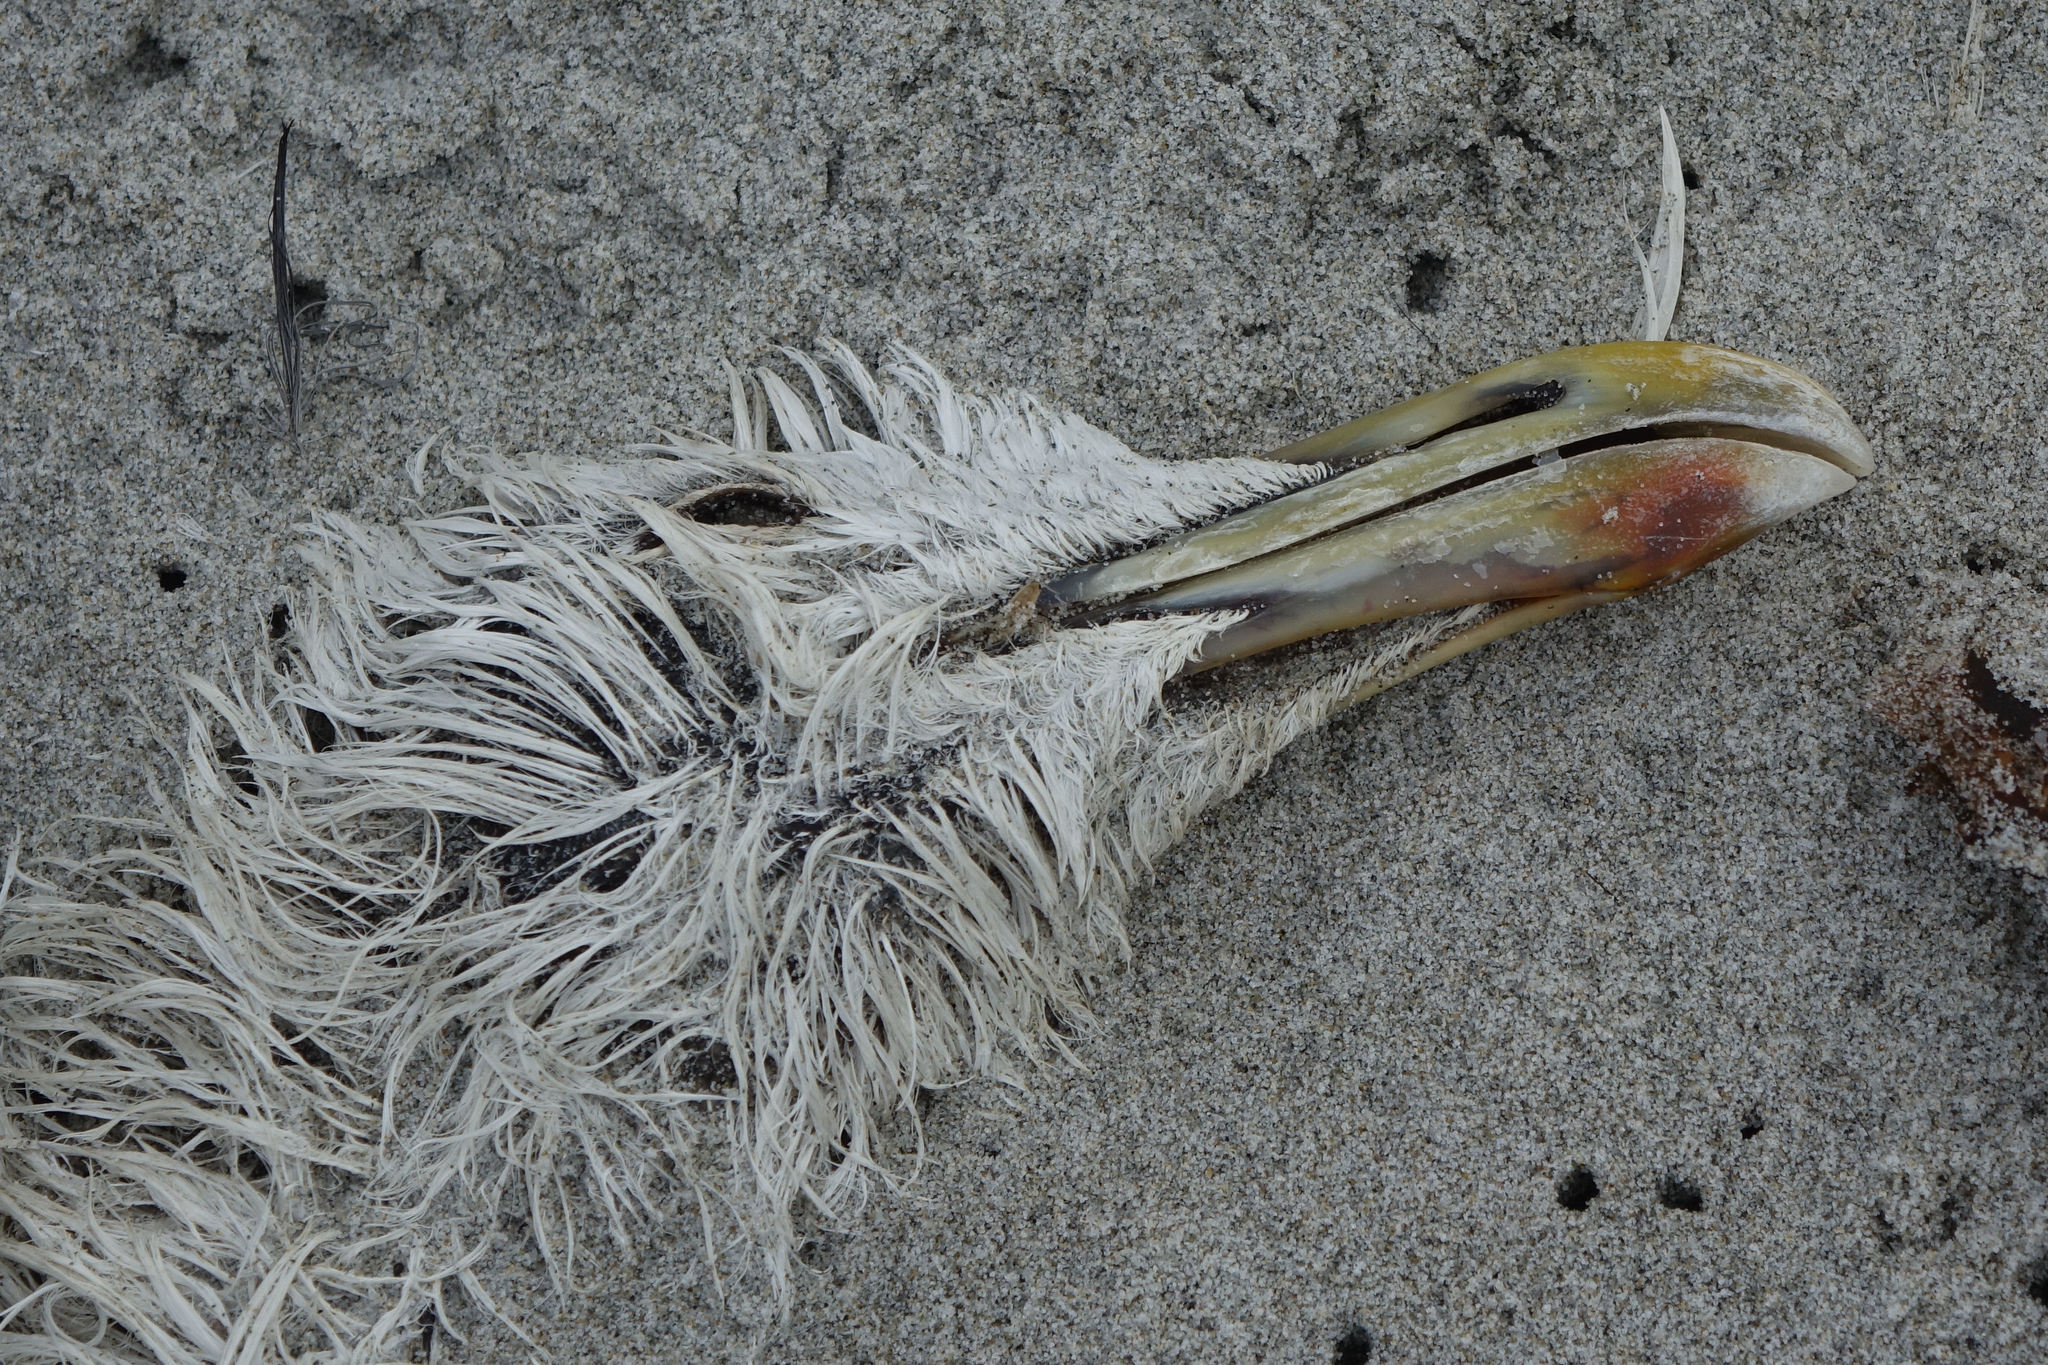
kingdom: Animalia
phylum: Chordata
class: Aves
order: Charadriiformes
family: Laridae
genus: Larus
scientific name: Larus dominicanus
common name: Kelp gull
